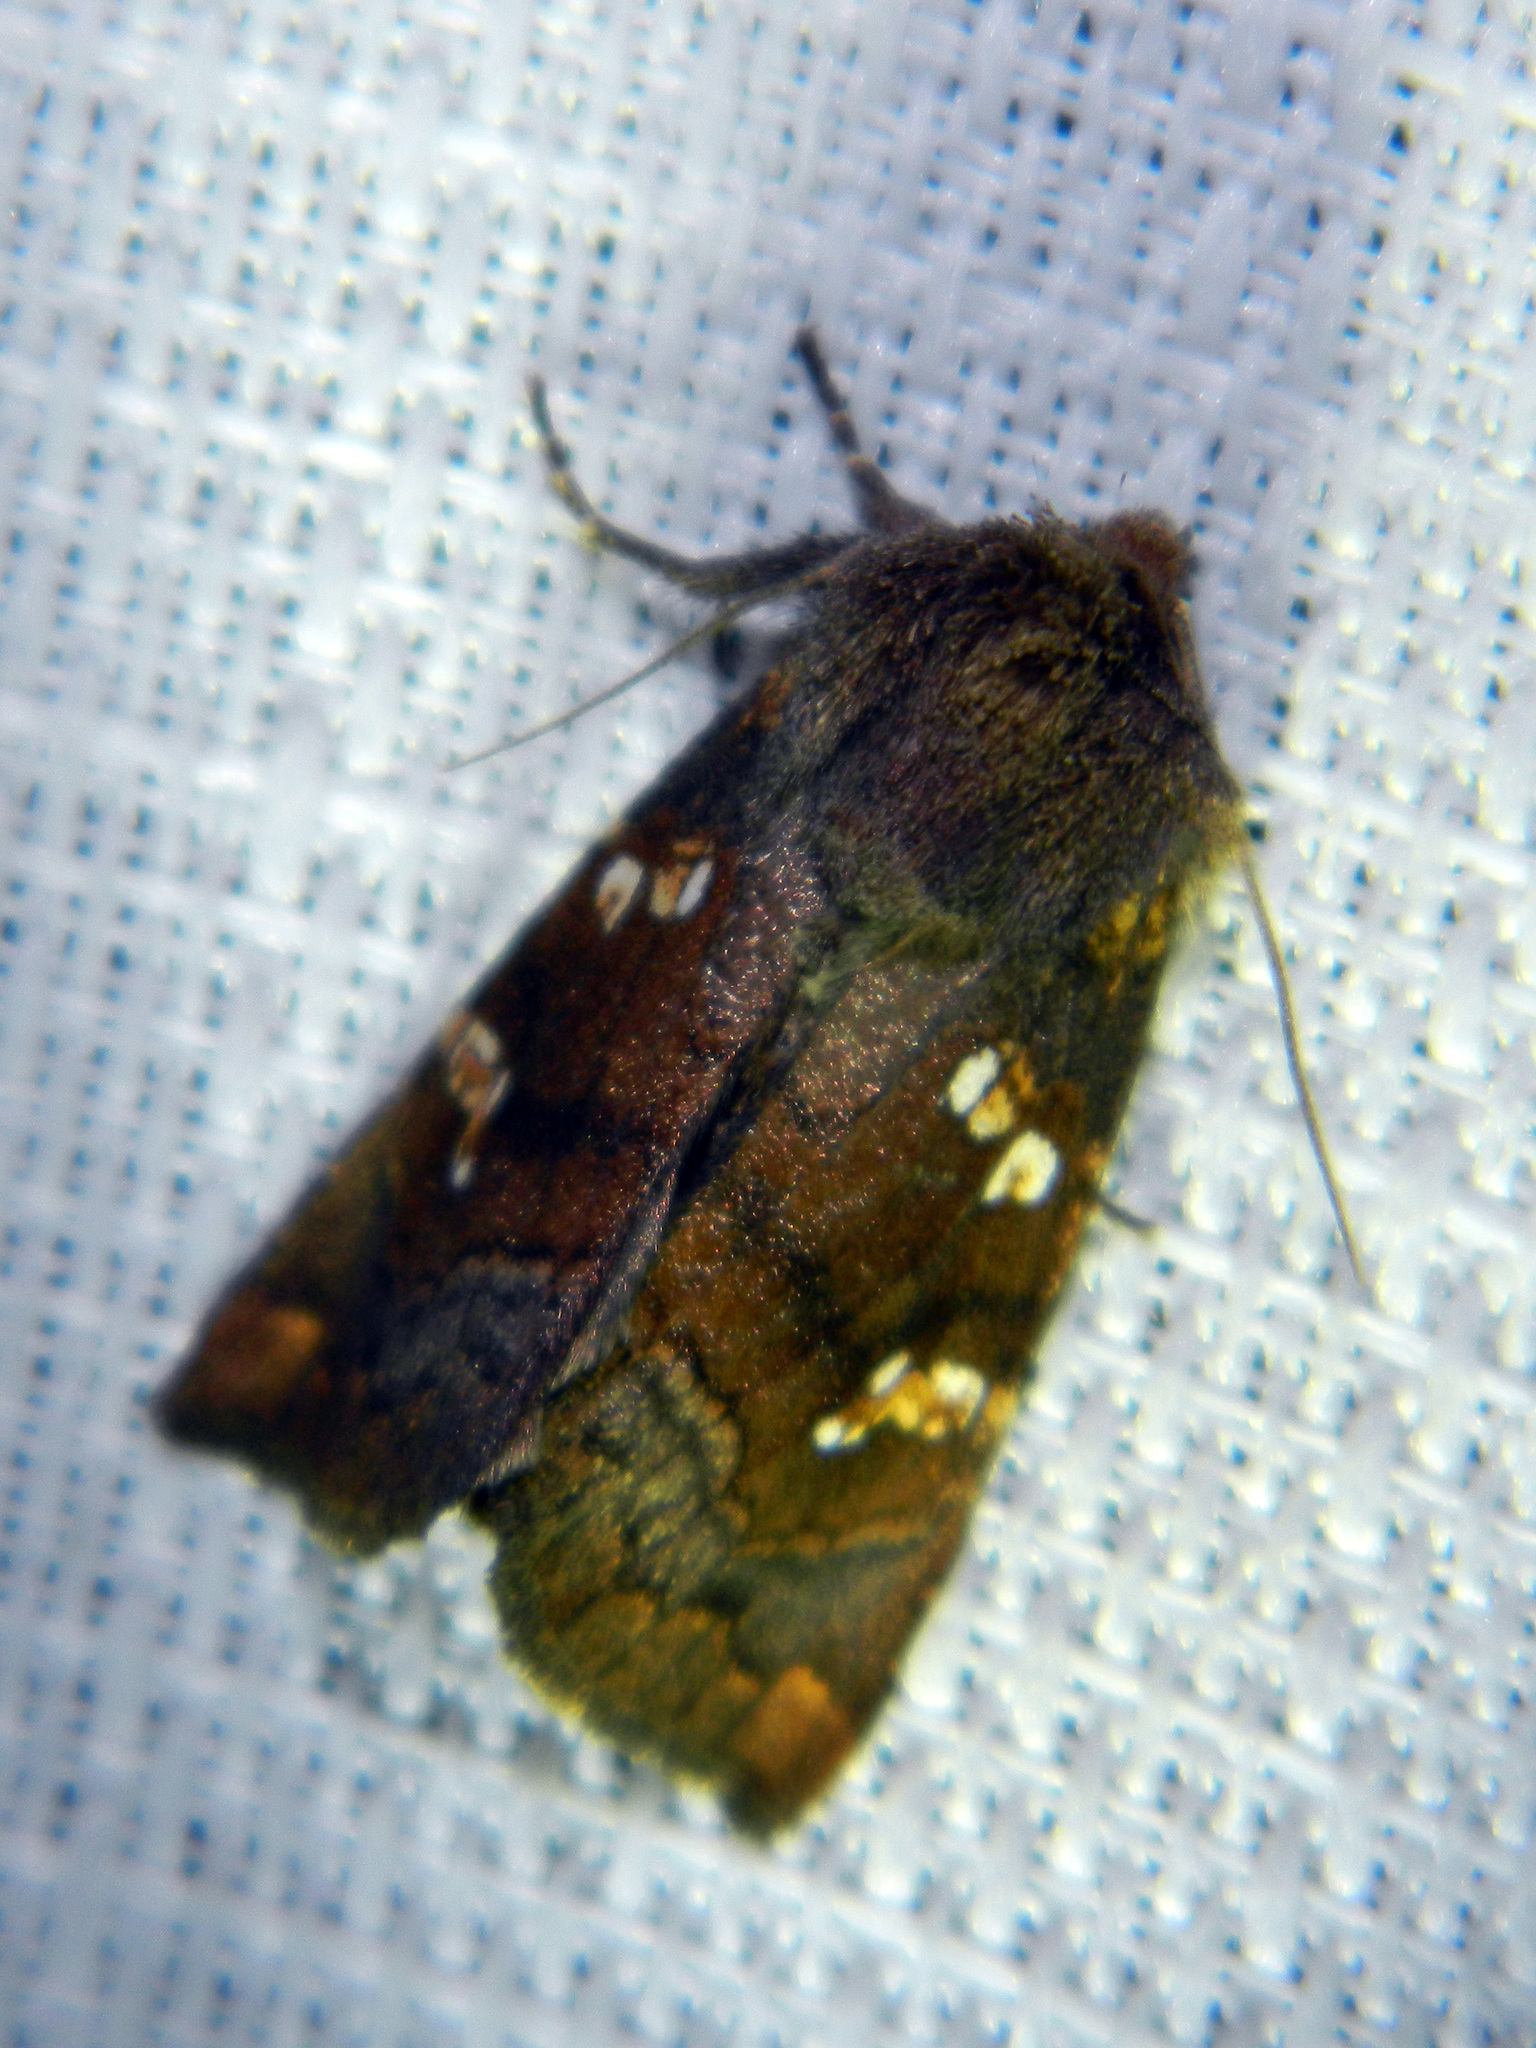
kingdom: Animalia
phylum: Arthropoda
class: Insecta
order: Lepidoptera
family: Noctuidae
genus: Papaipema
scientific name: Papaipema unimoda
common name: Meadow rue borer moth
